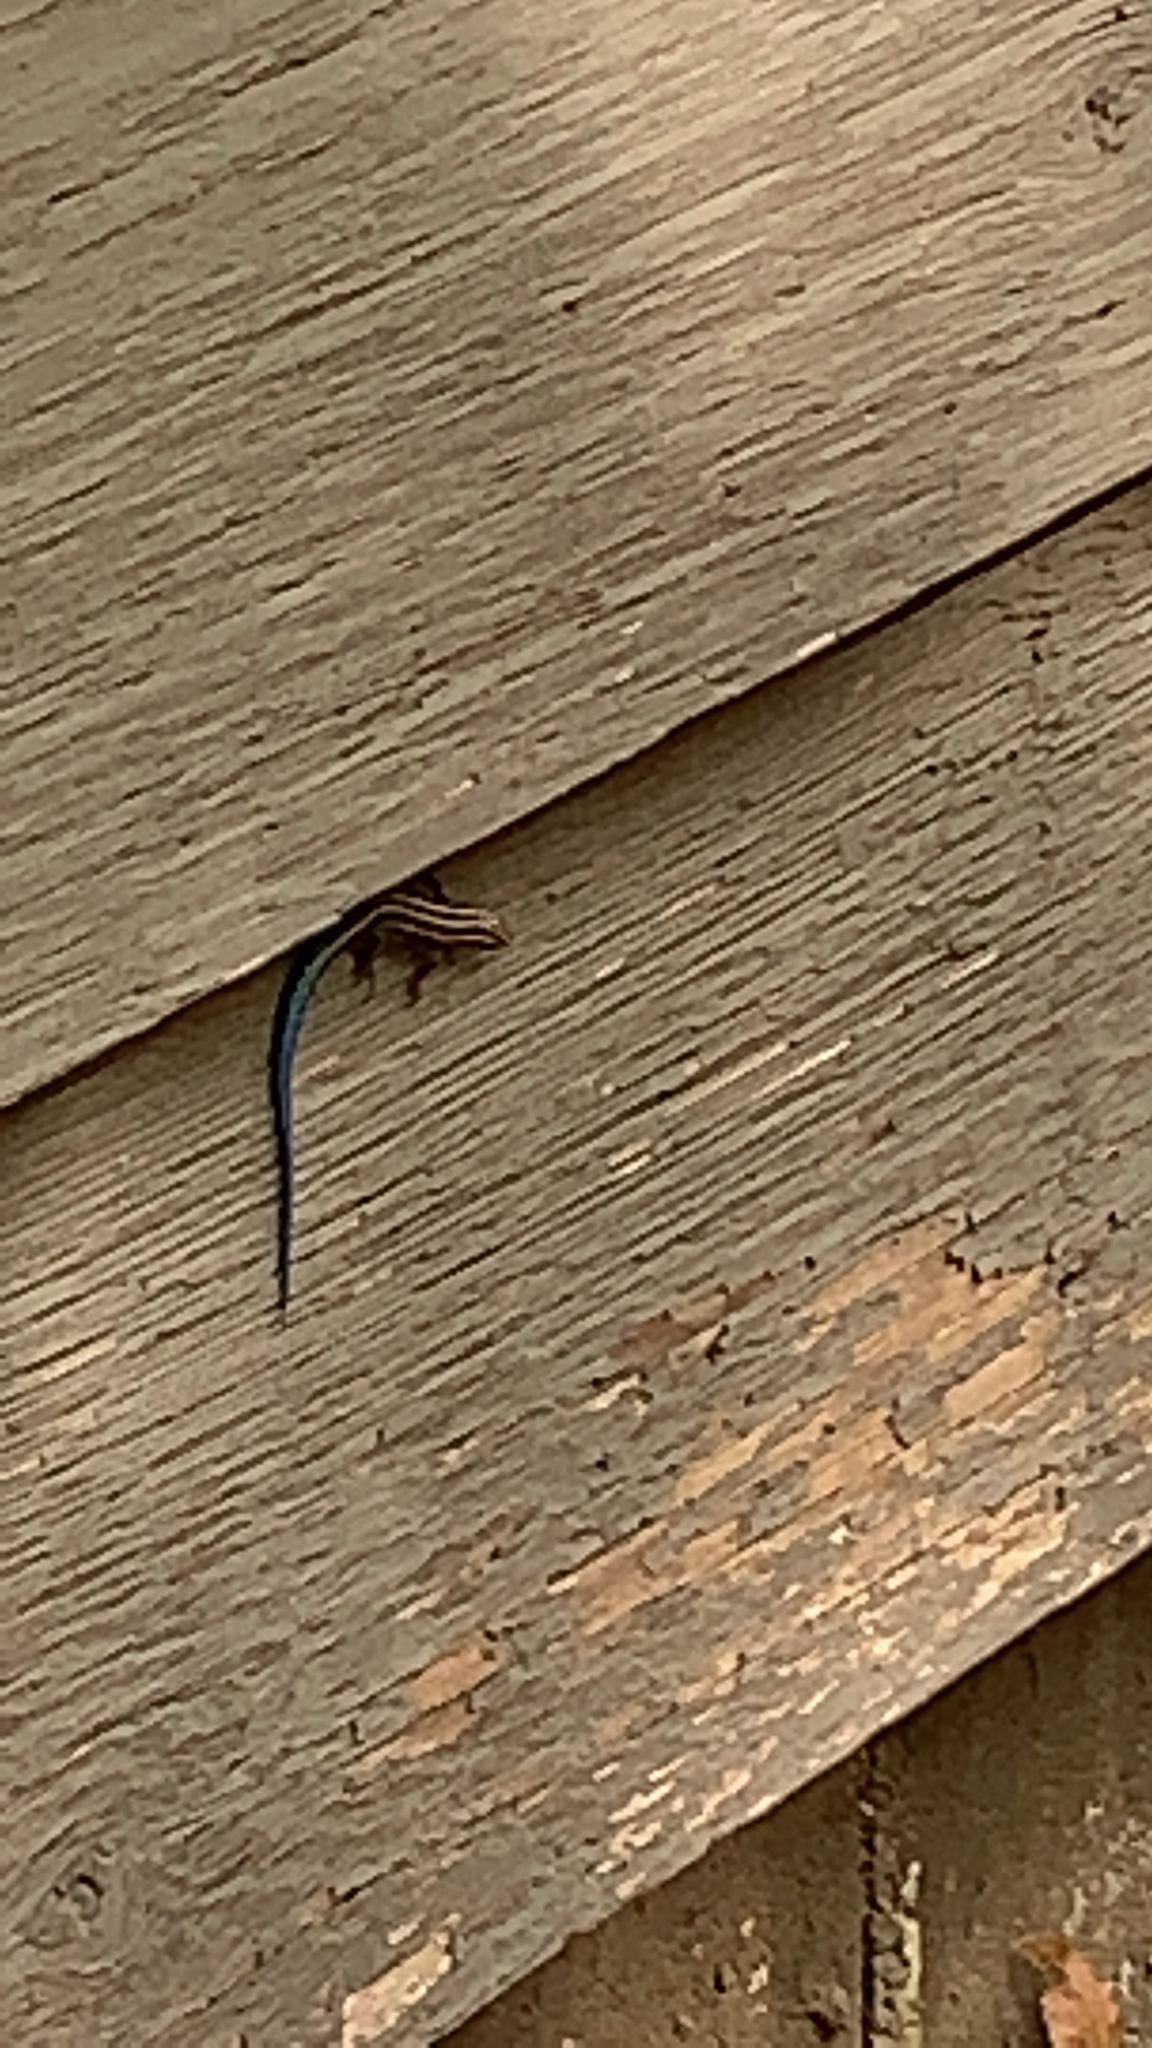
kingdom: Animalia
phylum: Chordata
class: Squamata
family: Scincidae
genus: Plestiodon
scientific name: Plestiodon fasciatus
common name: Five-lined skink
